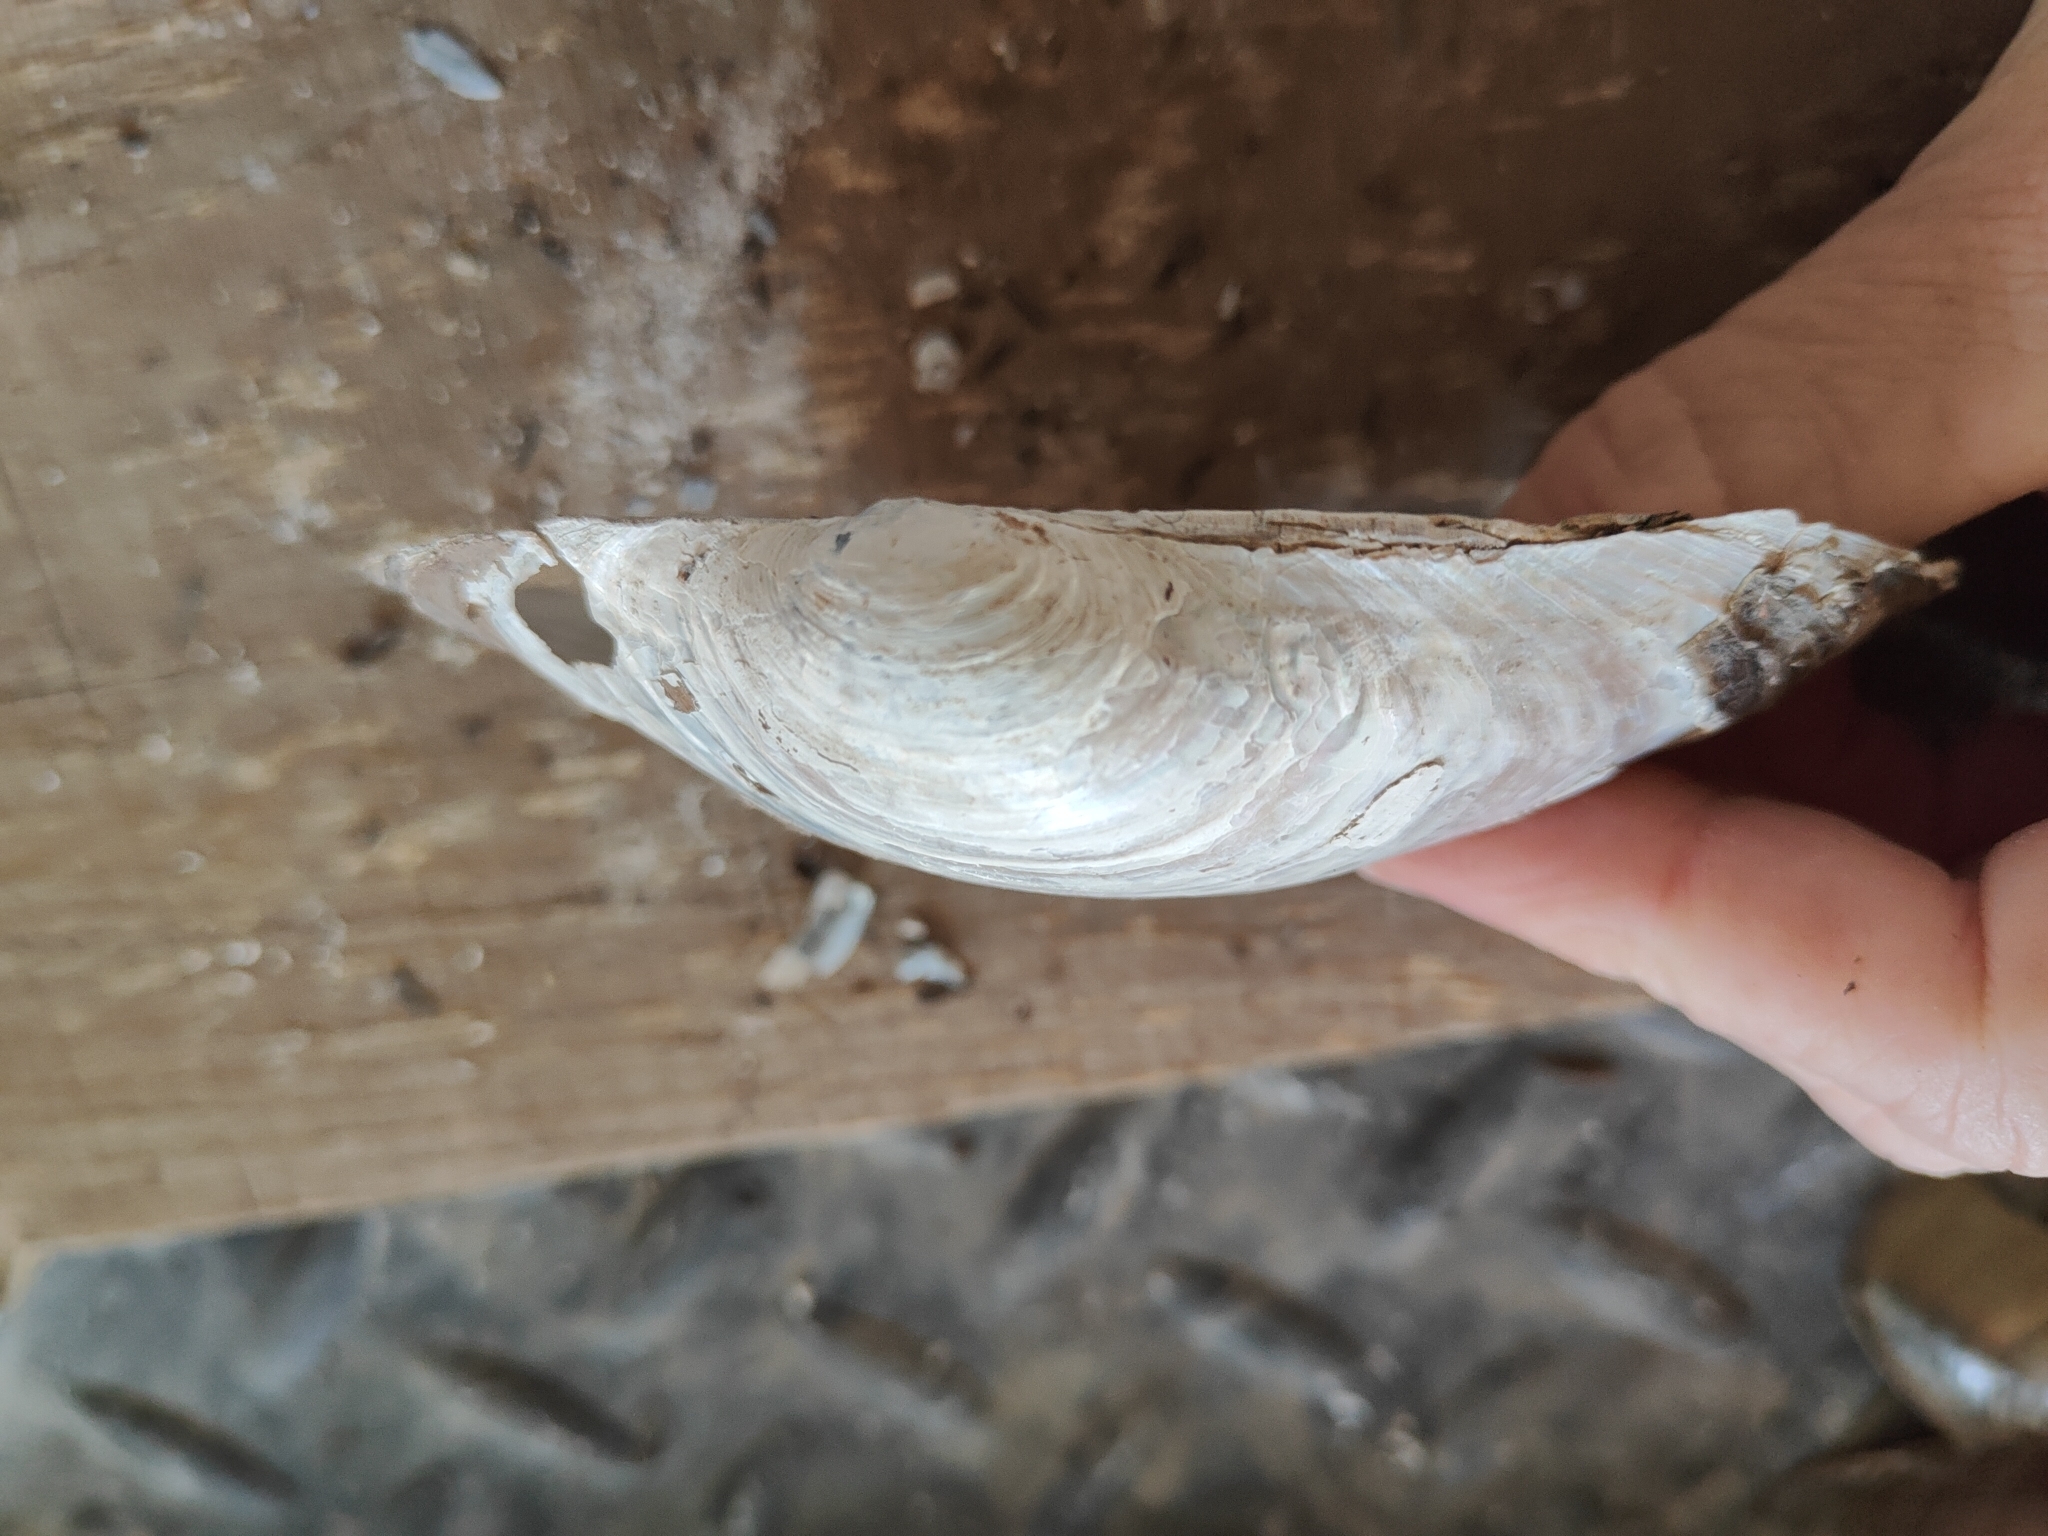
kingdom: Animalia
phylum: Mollusca
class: Bivalvia
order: Unionida
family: Unionidae
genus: Pyganodon
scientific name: Pyganodon grandis
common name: Giant floater
